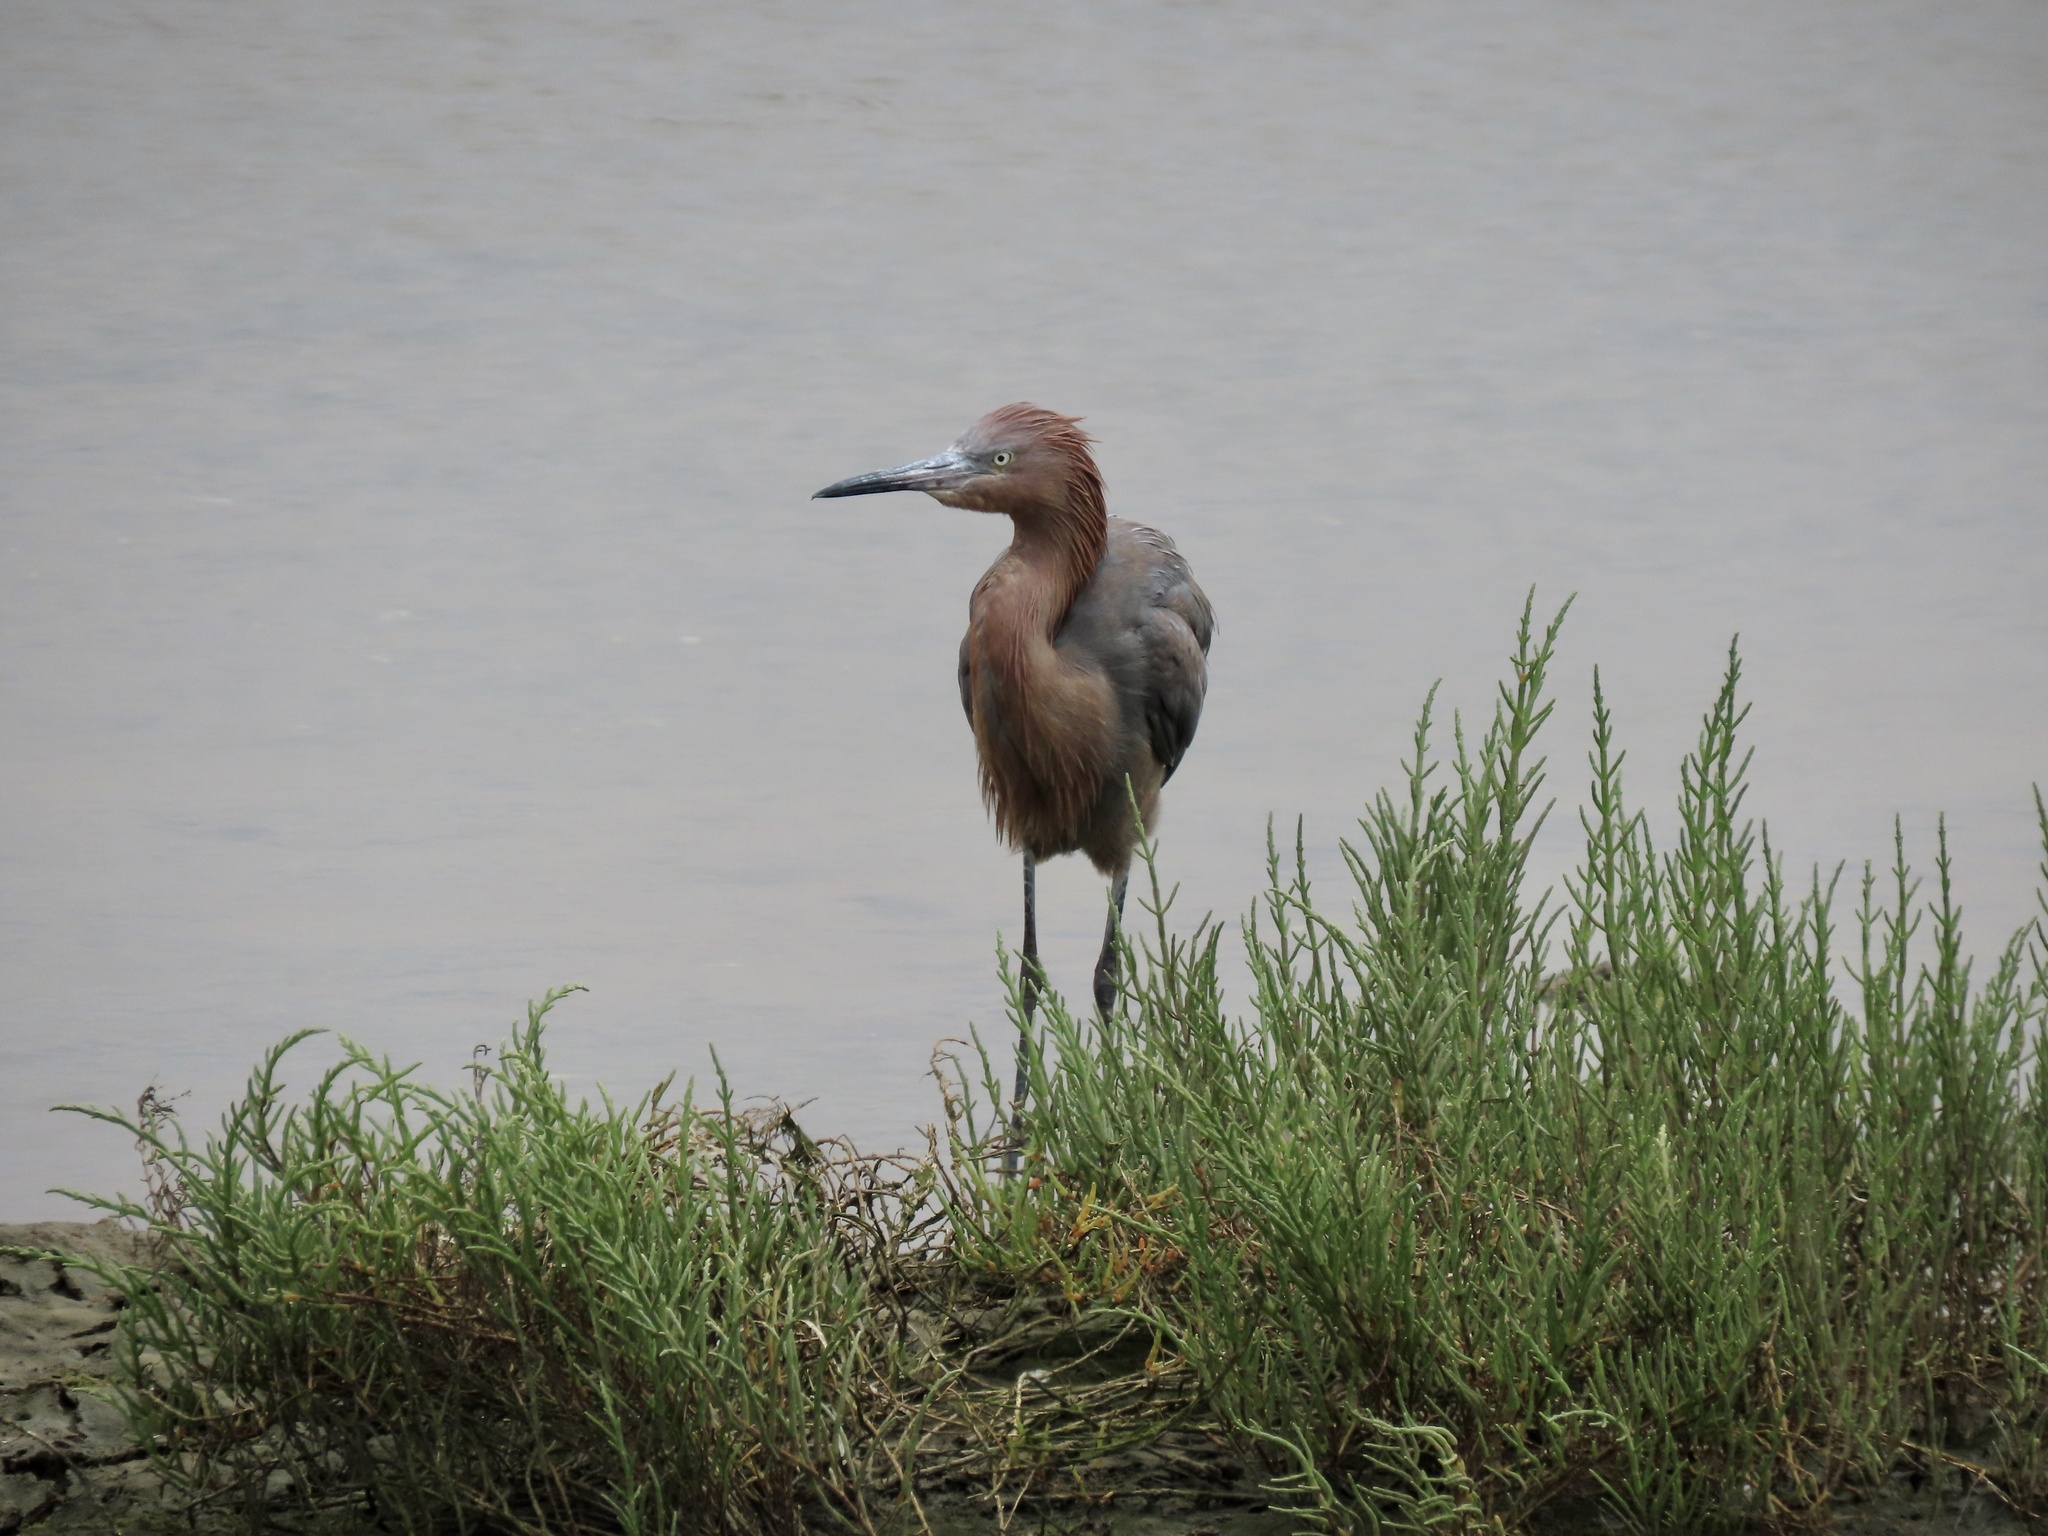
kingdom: Animalia
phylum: Chordata
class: Aves
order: Pelecaniformes
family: Ardeidae
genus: Egretta
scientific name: Egretta rufescens
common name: Reddish egret
